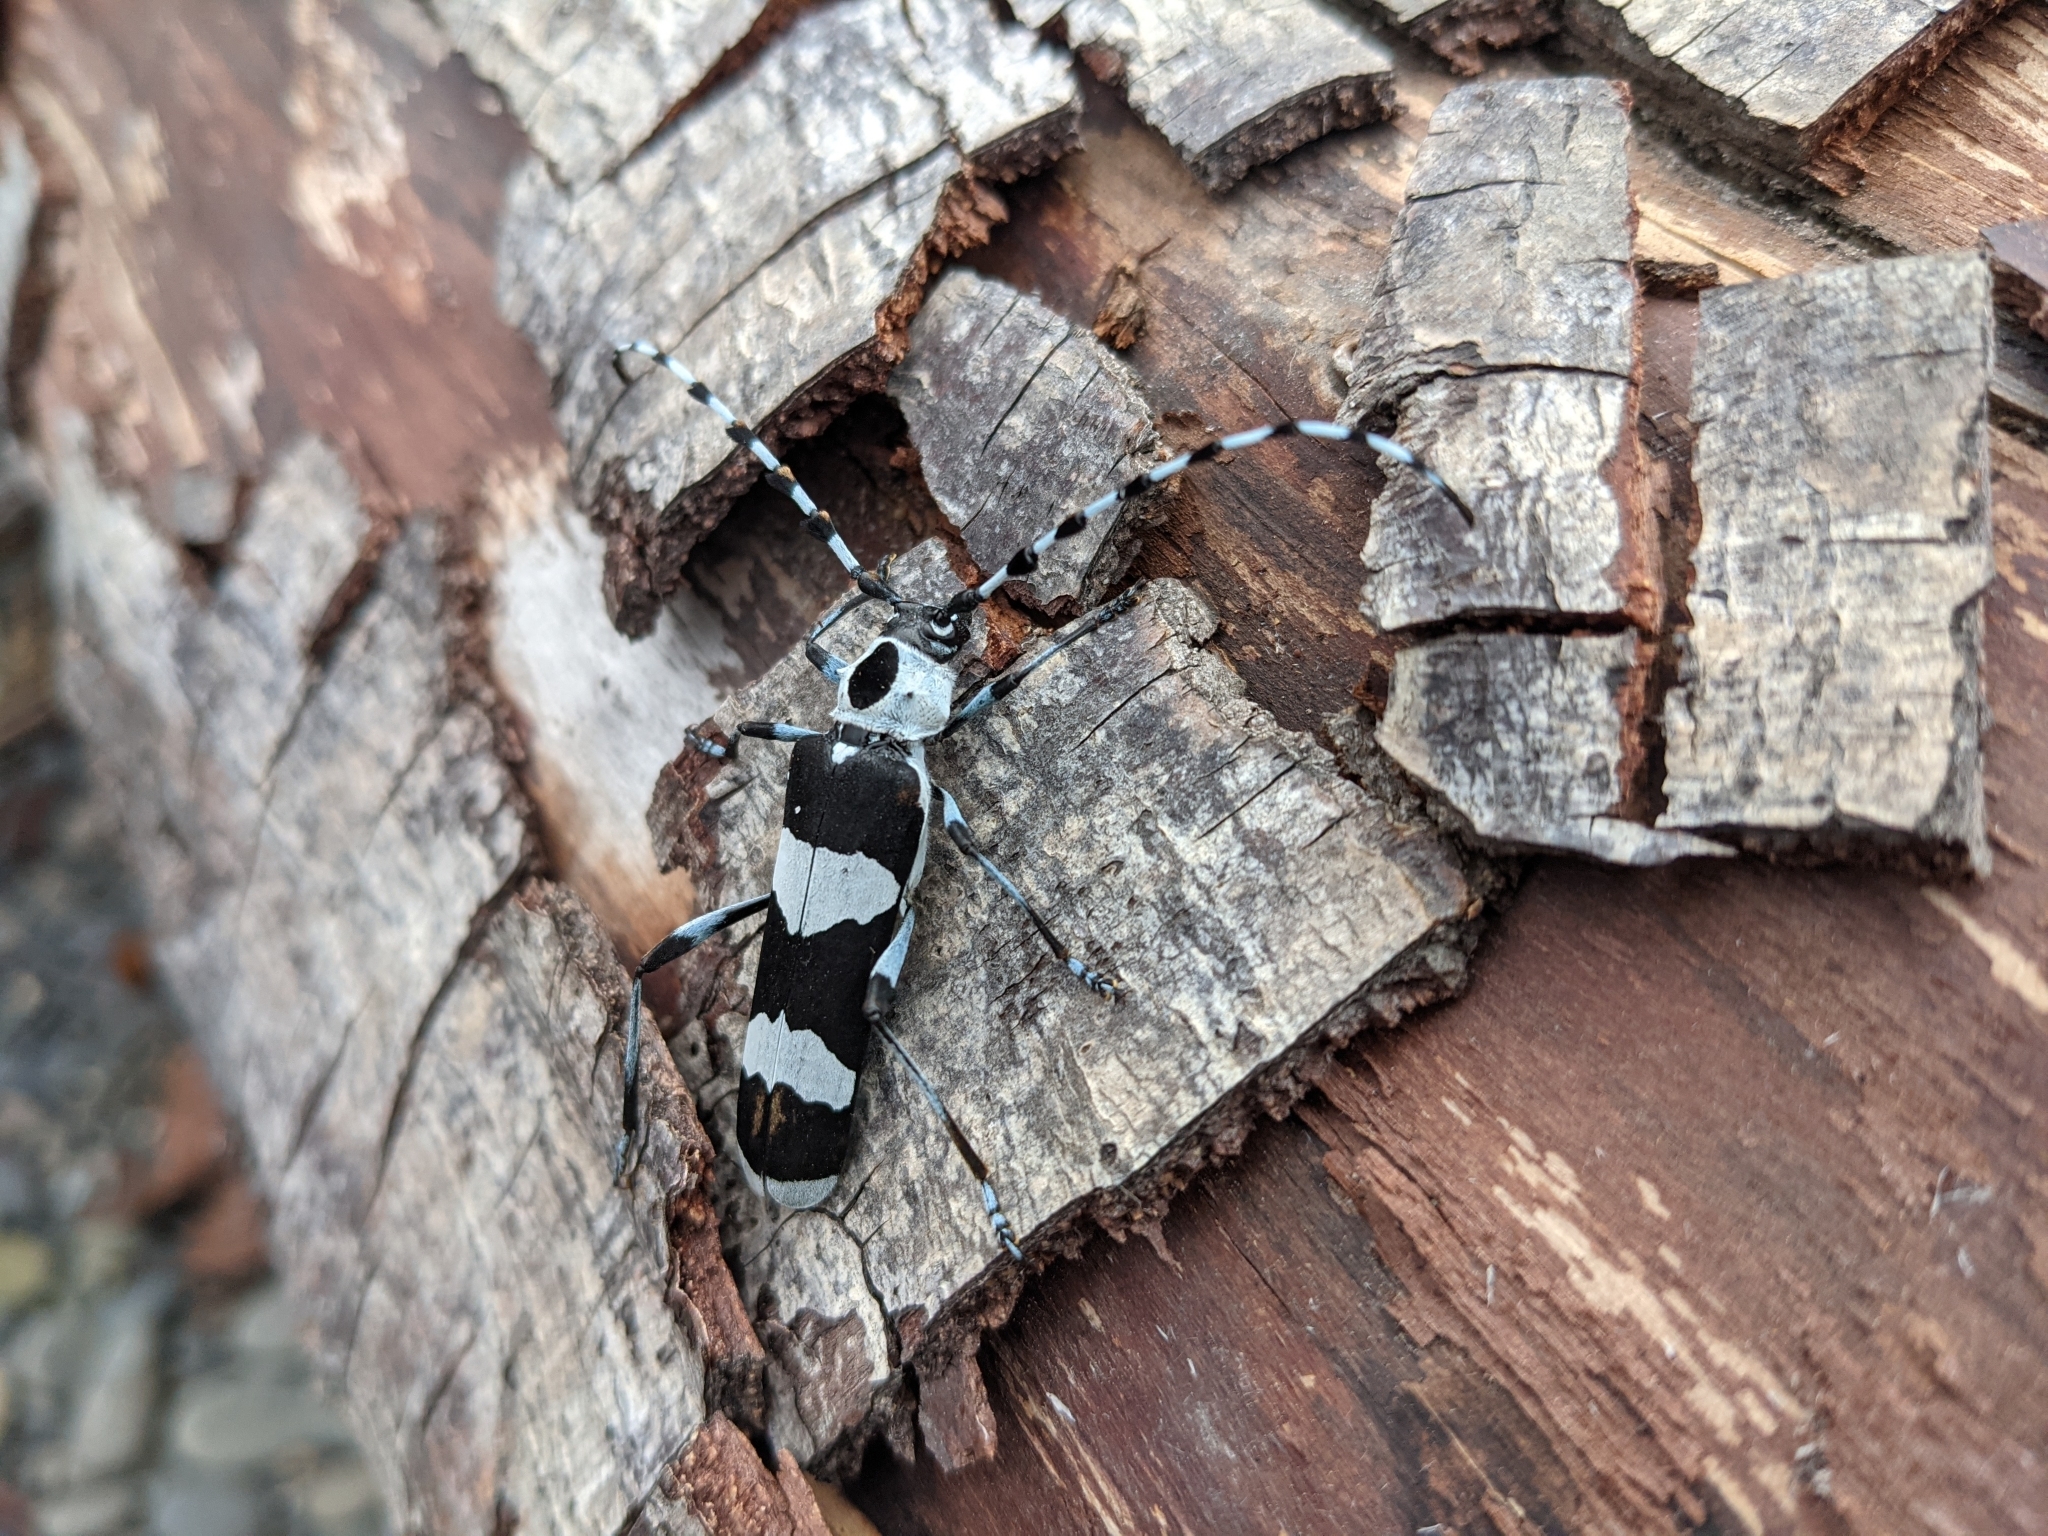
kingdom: Animalia
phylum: Arthropoda
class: Insecta
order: Coleoptera
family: Cerambycidae
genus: Rosalia
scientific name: Rosalia funebris
